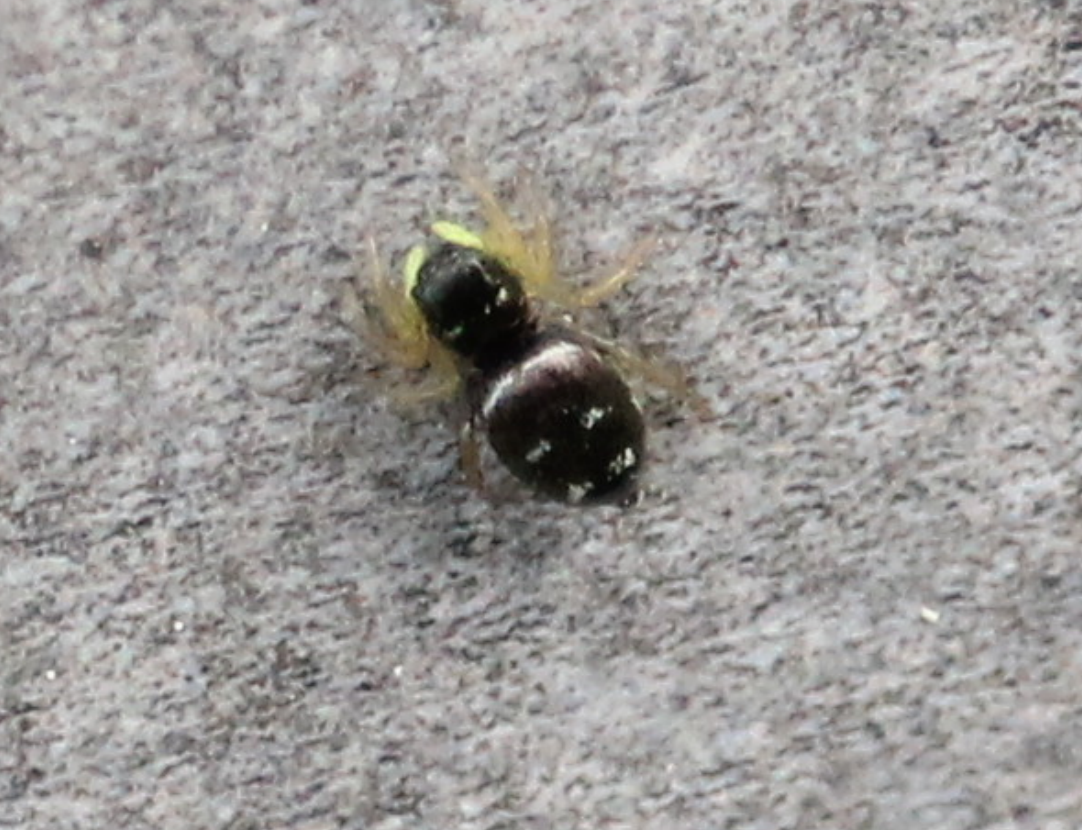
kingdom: Animalia
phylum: Arthropoda
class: Arachnida
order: Araneae
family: Salticidae
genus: Heliophanus
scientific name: Heliophanus cupreus
